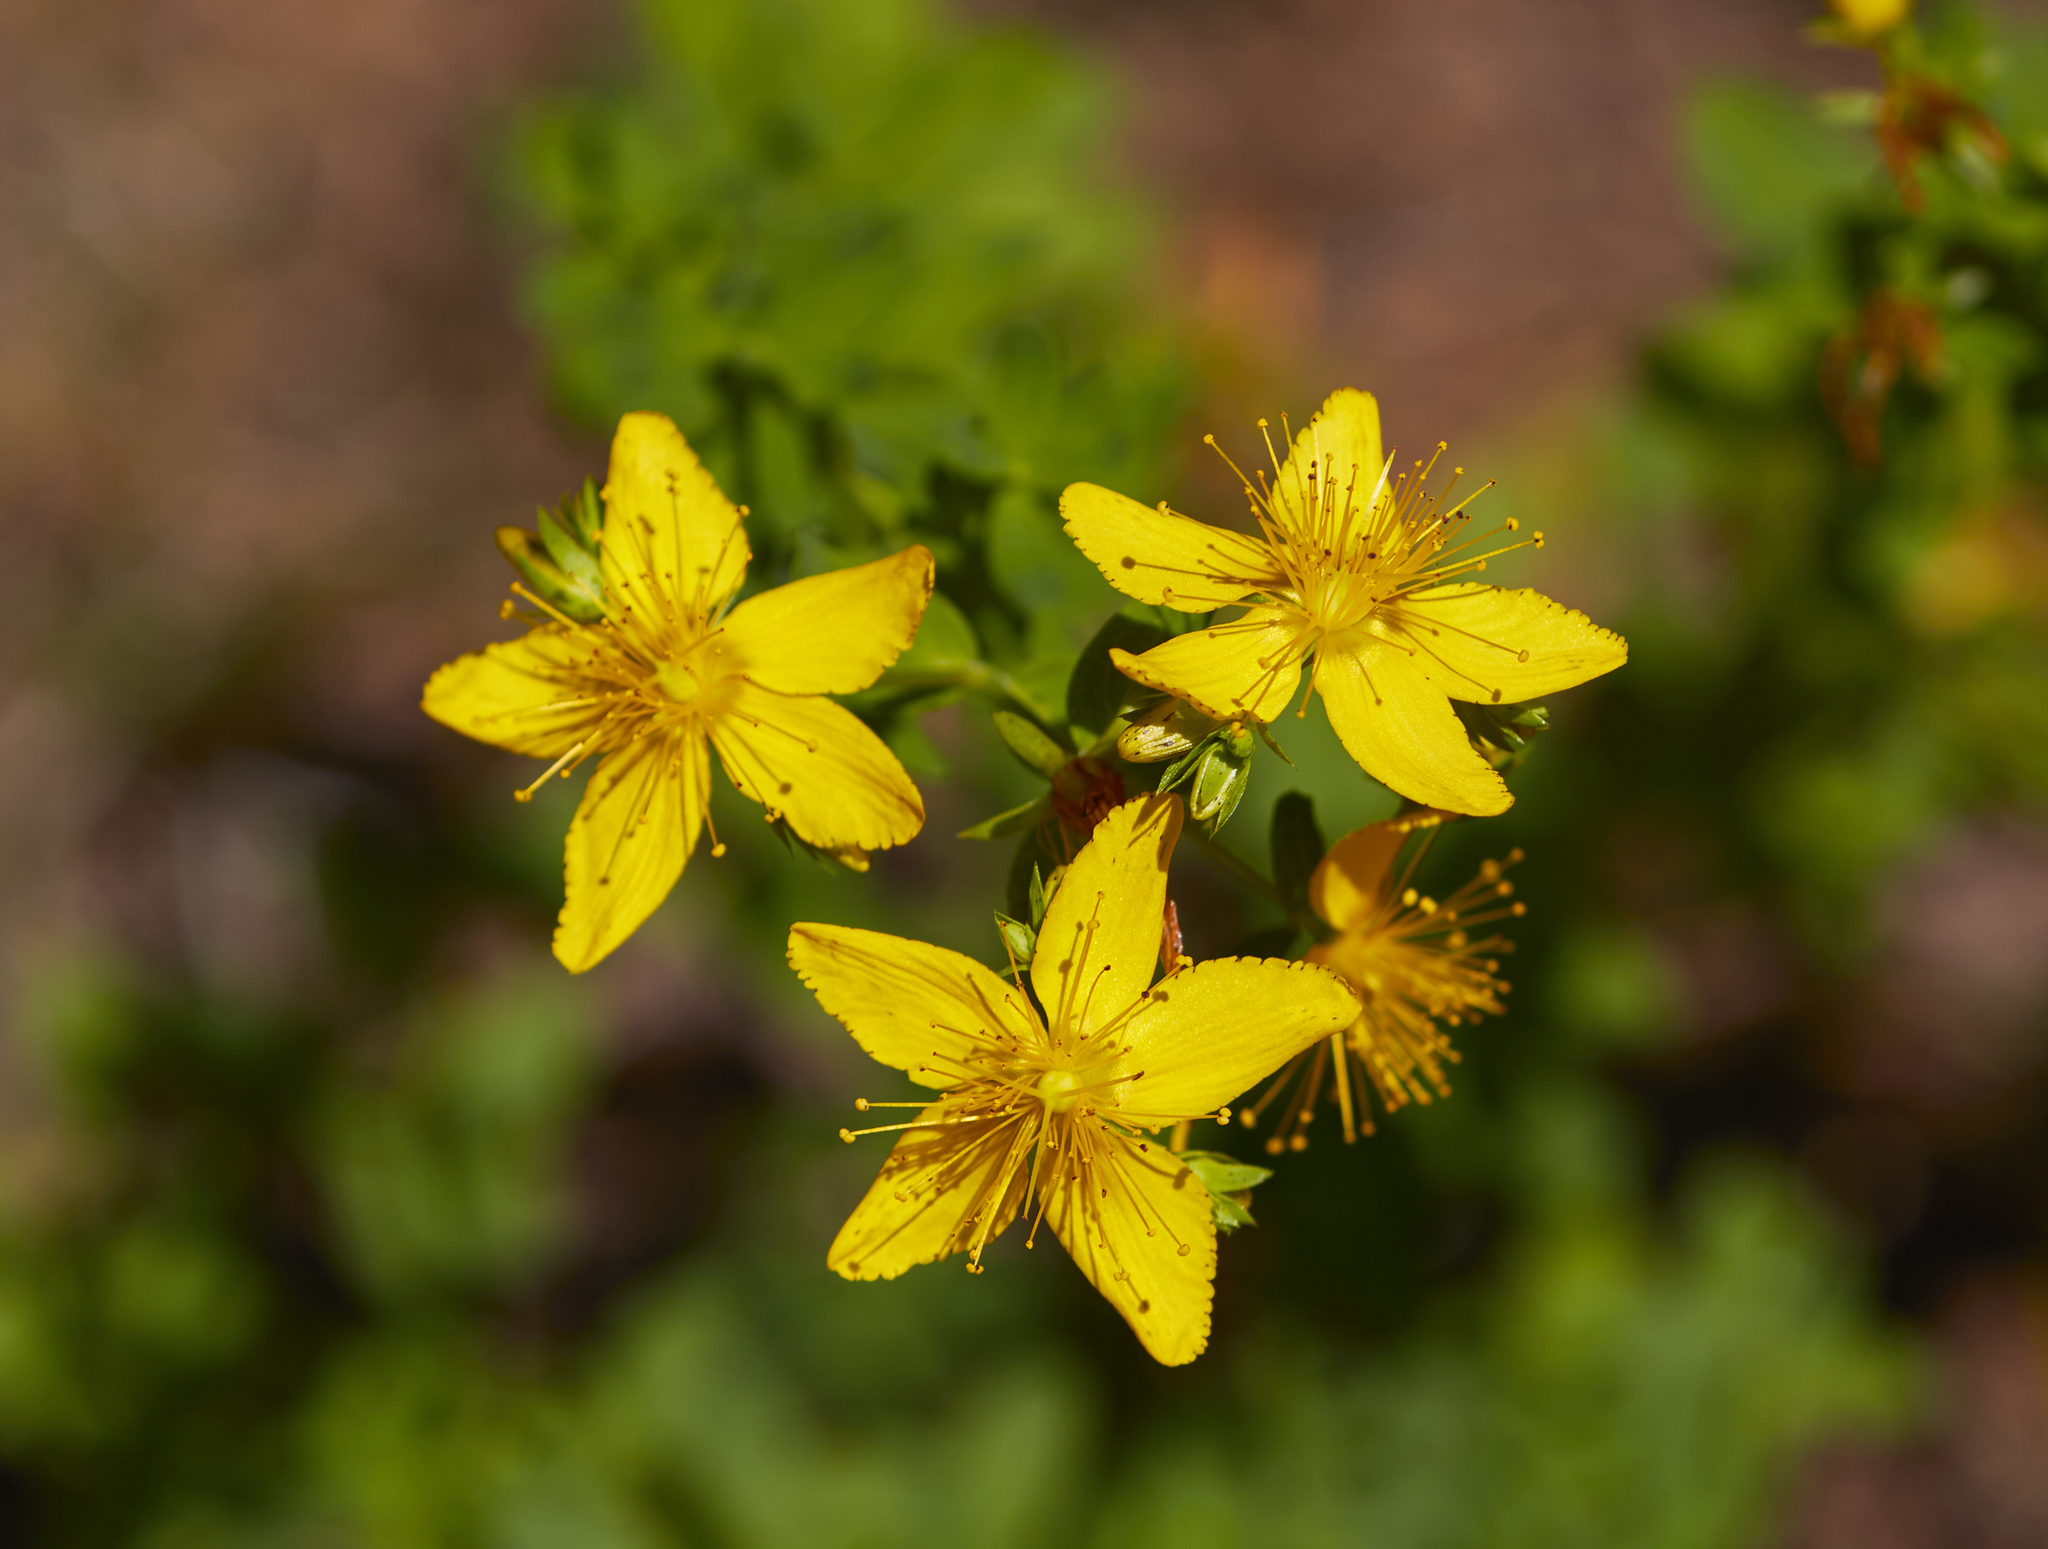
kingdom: Plantae
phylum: Tracheophyta
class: Magnoliopsida
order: Malpighiales
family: Hypericaceae
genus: Hypericum
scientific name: Hypericum perforatum
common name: Common st. johnswort
